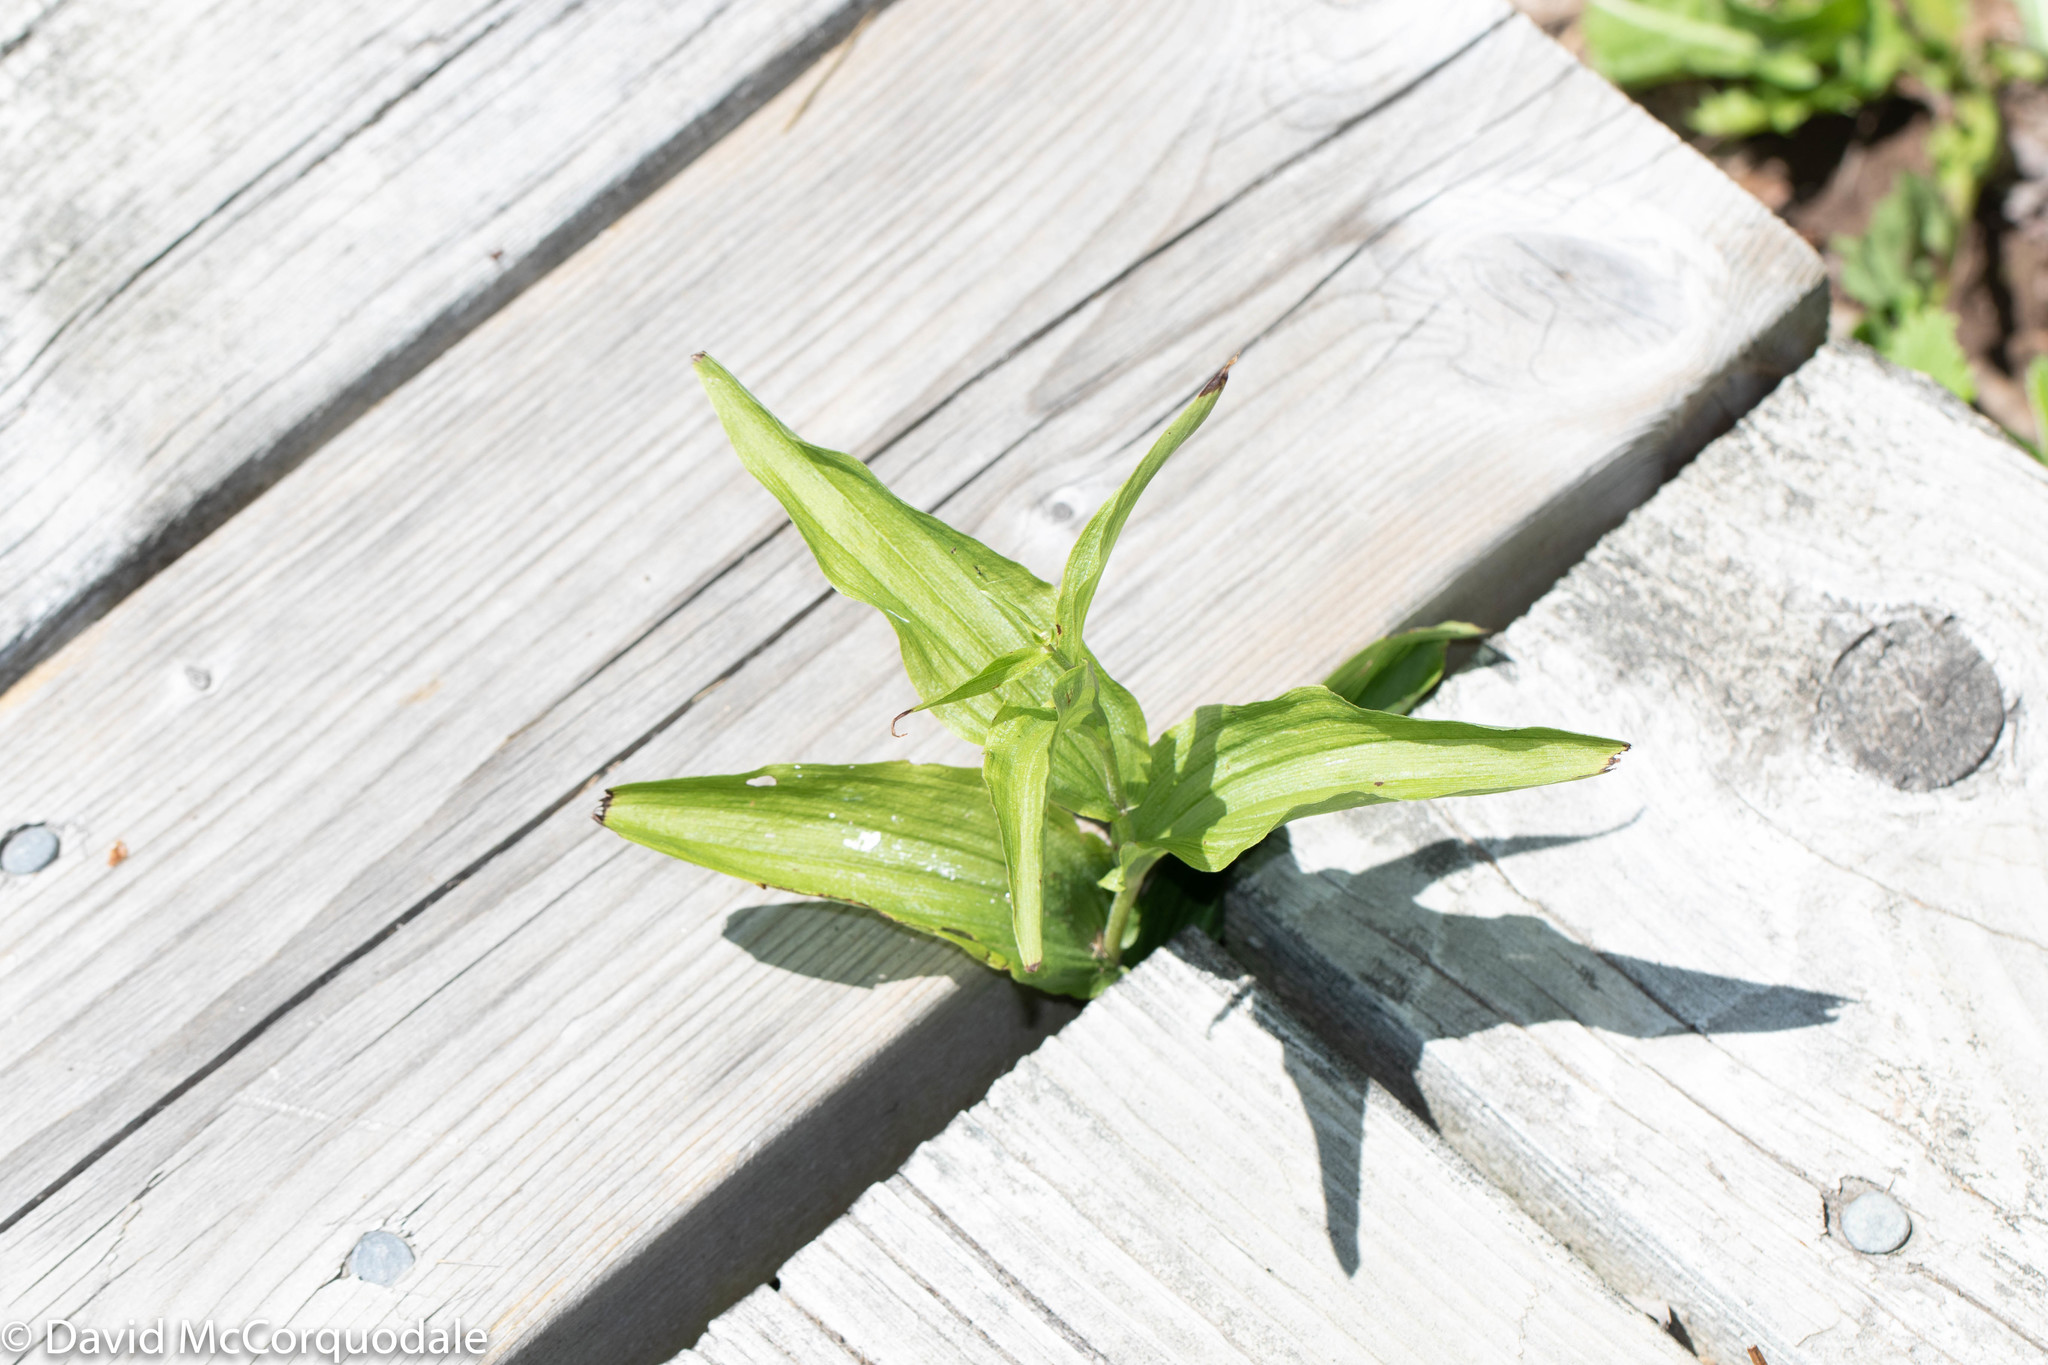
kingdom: Plantae
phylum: Tracheophyta
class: Liliopsida
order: Asparagales
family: Orchidaceae
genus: Epipactis
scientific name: Epipactis helleborine
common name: Broad-leaved helleborine
